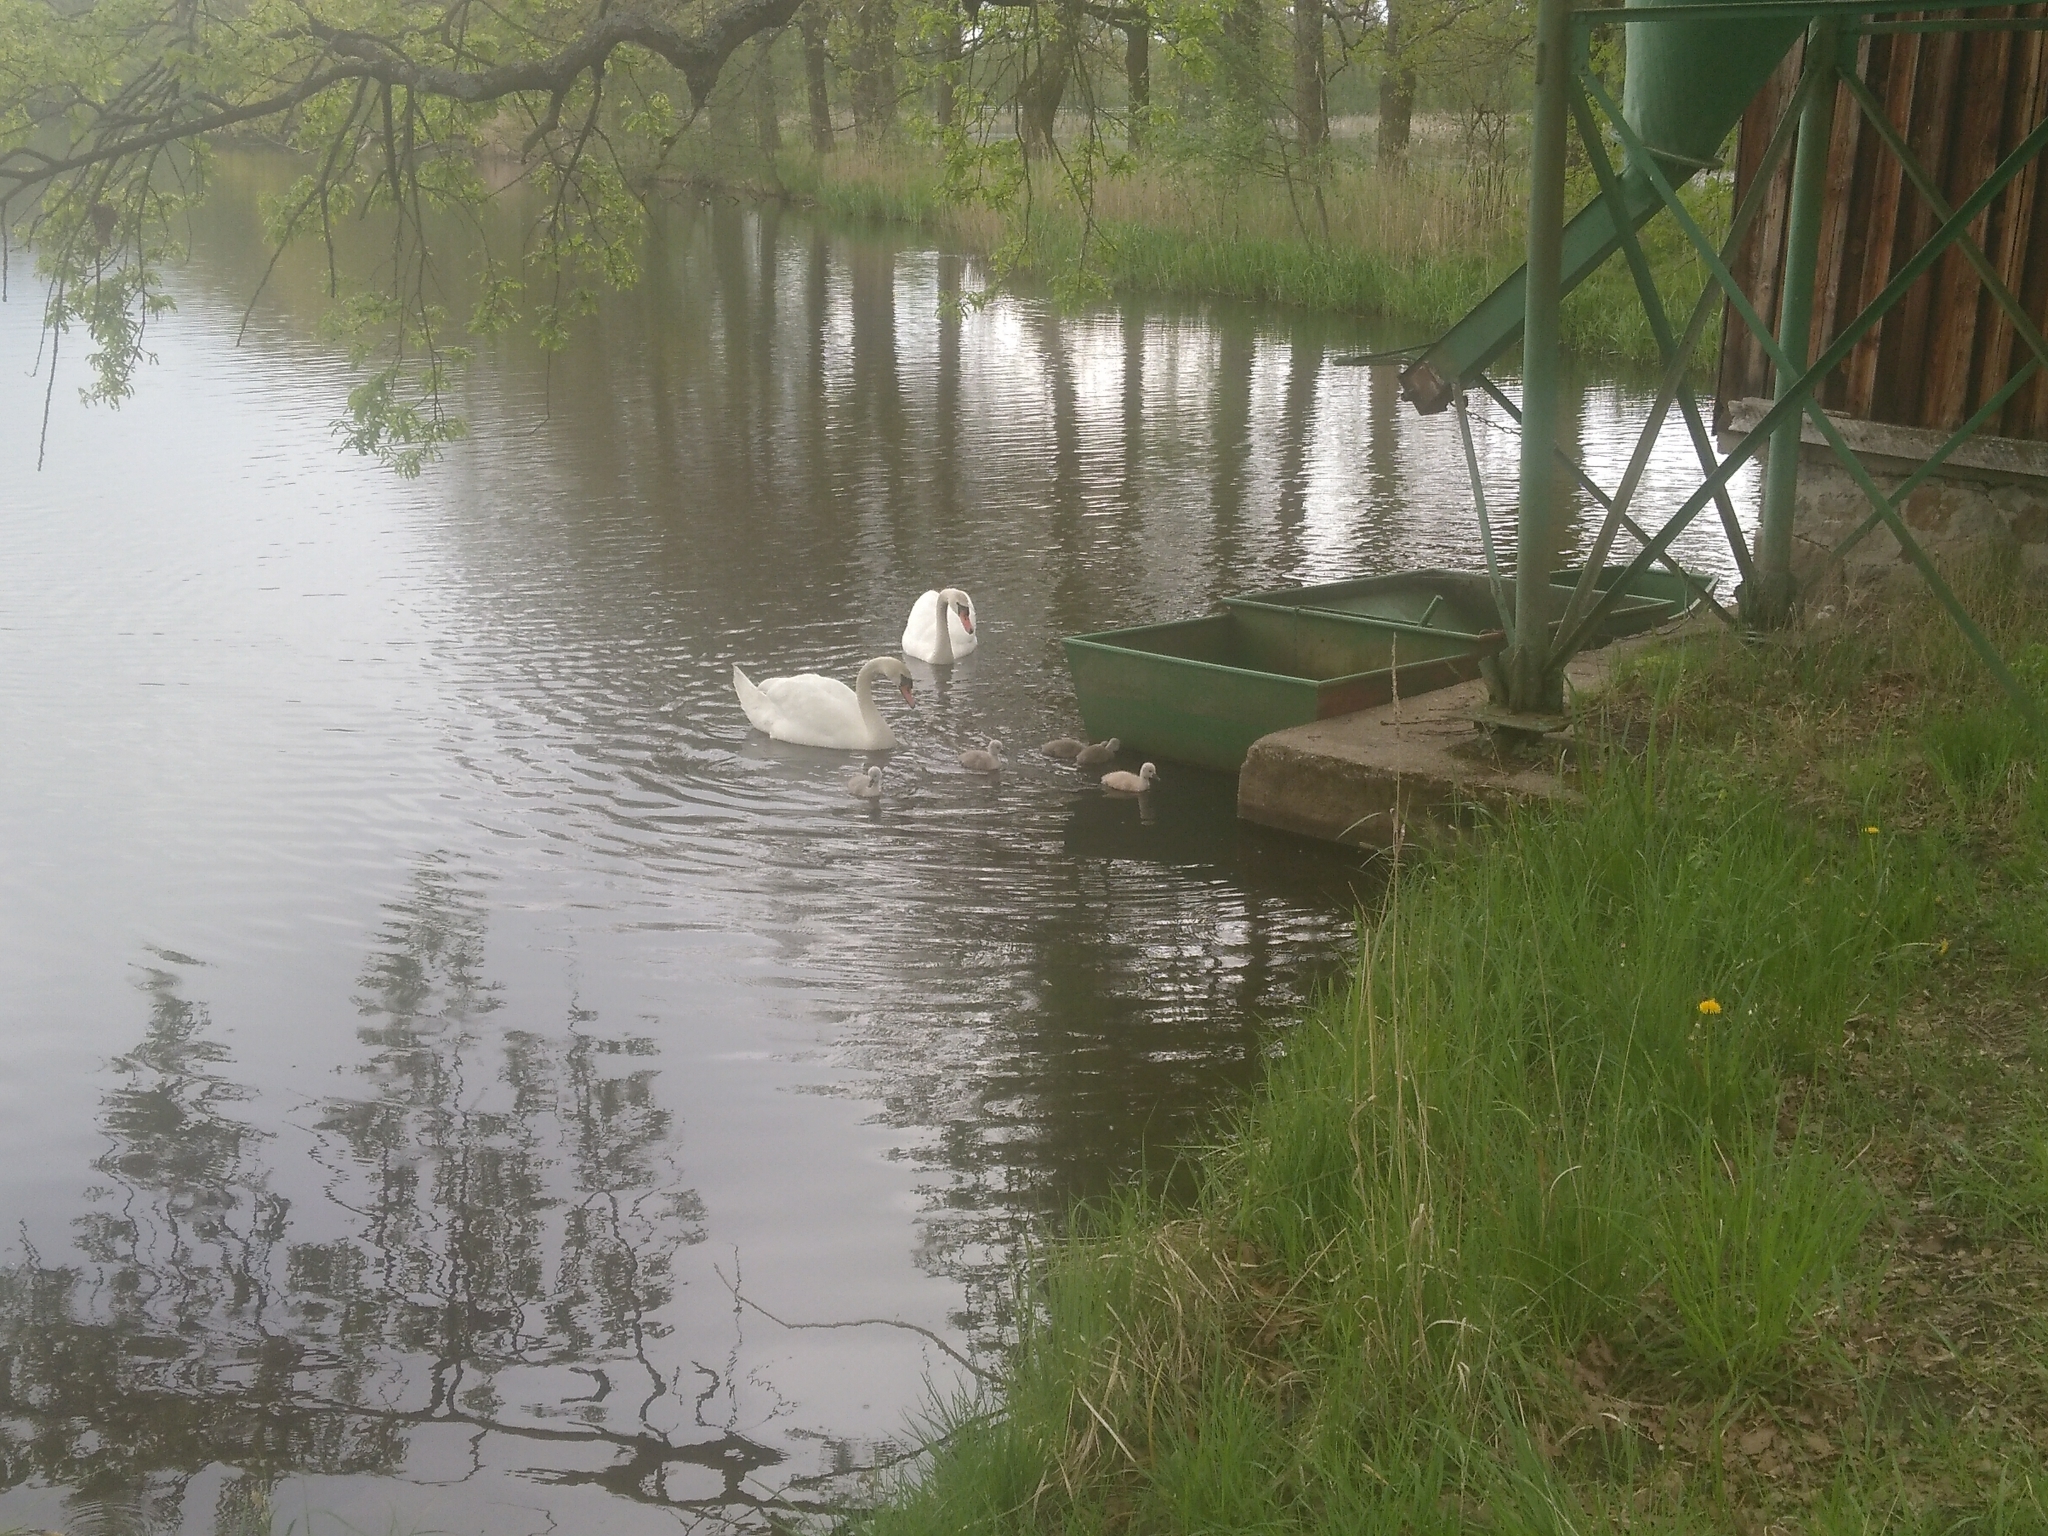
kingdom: Animalia
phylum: Chordata
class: Aves
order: Anseriformes
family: Anatidae
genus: Cygnus
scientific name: Cygnus olor
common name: Mute swan
